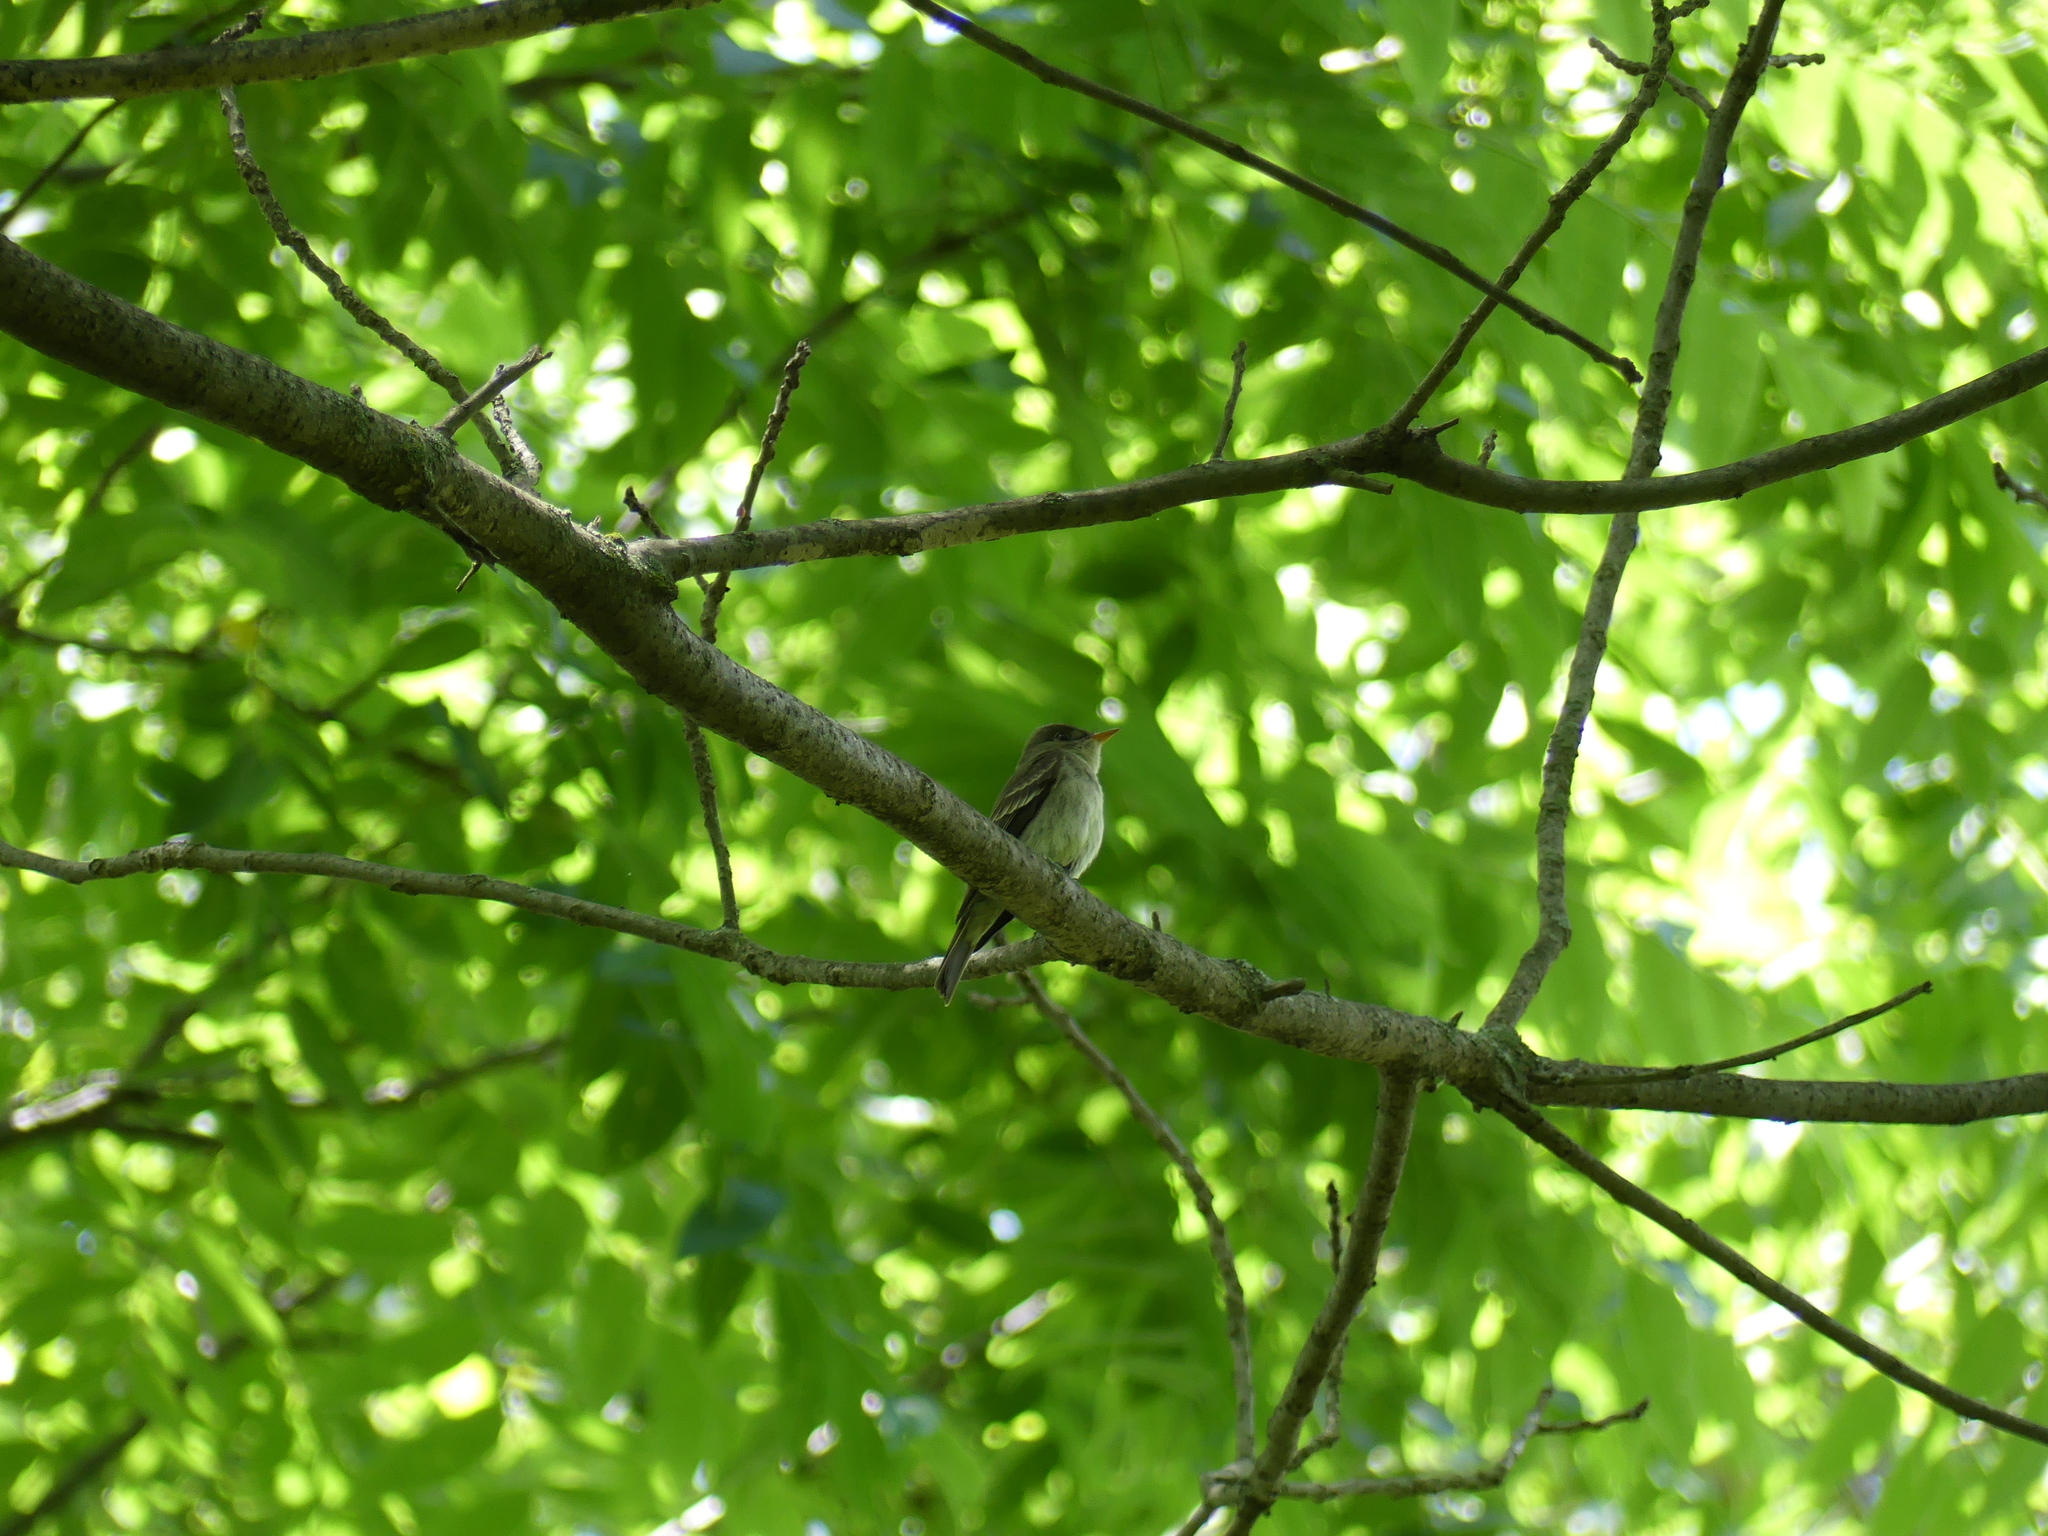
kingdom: Animalia
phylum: Chordata
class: Aves
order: Passeriformes
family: Tyrannidae
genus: Contopus
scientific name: Contopus virens
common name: Eastern wood-pewee
